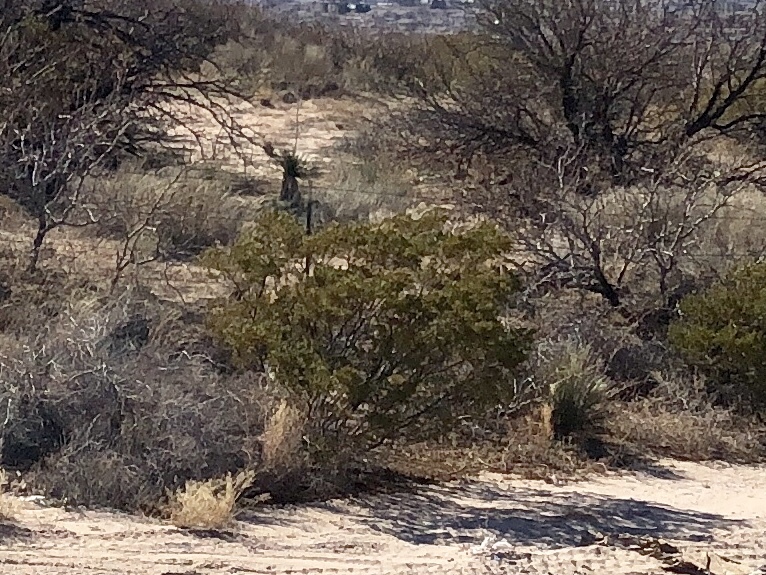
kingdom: Plantae
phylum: Tracheophyta
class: Magnoliopsida
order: Zygophyllales
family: Zygophyllaceae
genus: Larrea
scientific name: Larrea tridentata
